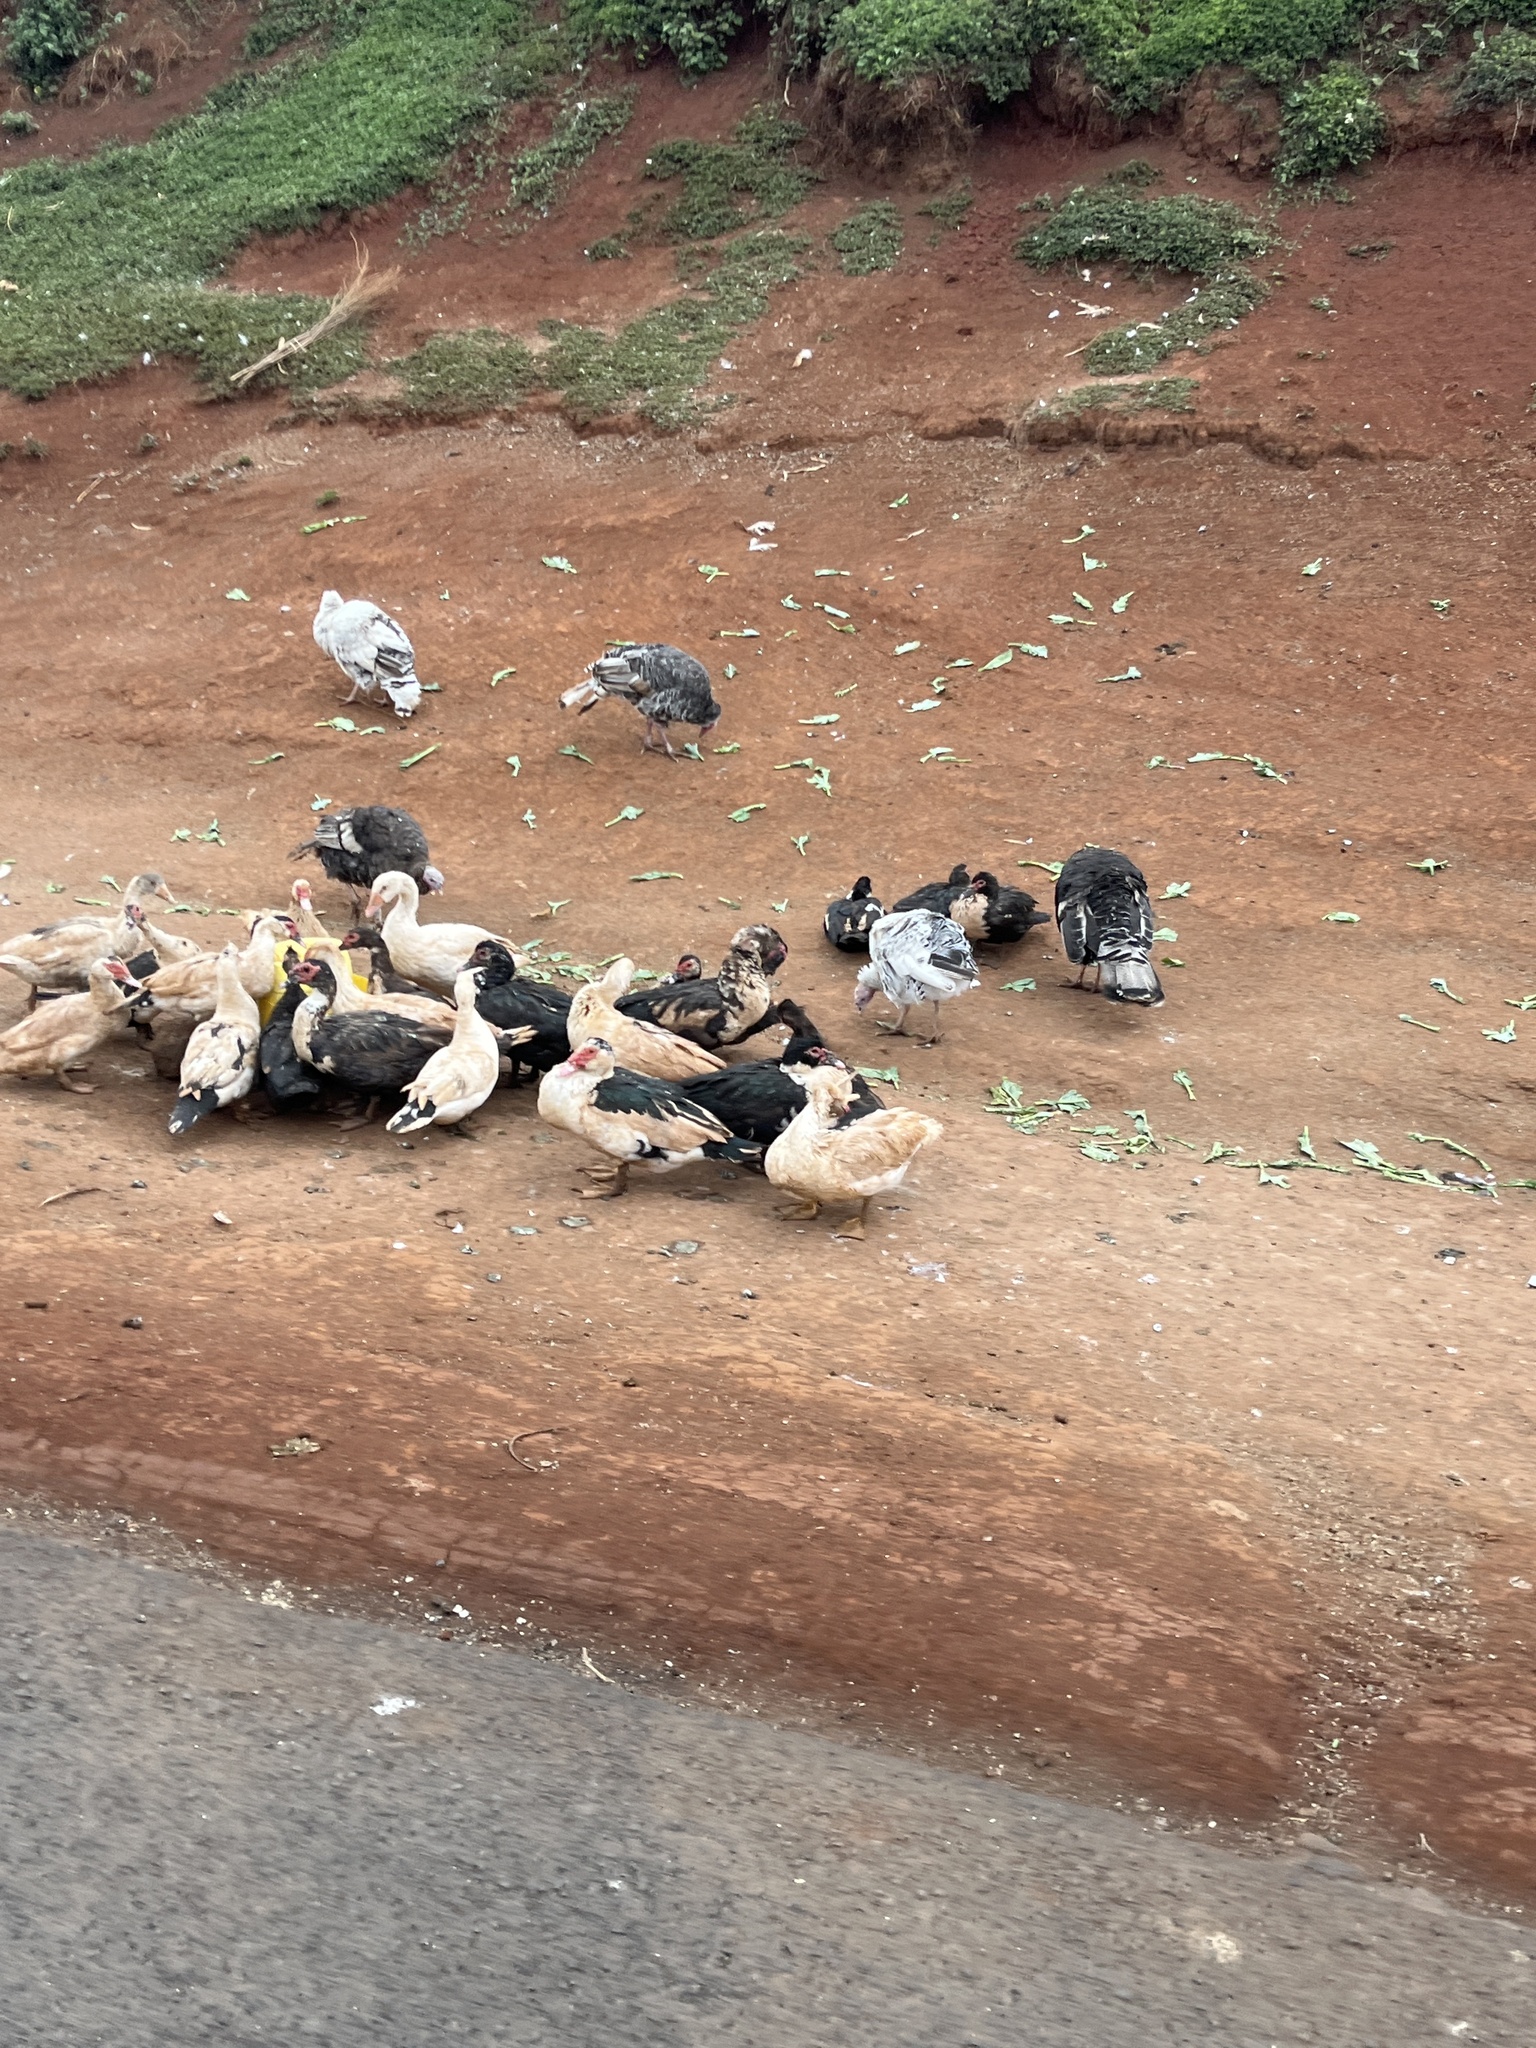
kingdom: Animalia
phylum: Chordata
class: Aves
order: Galliformes
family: Phasianidae
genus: Meleagris
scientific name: Meleagris gallopavo
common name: Wild turkey
